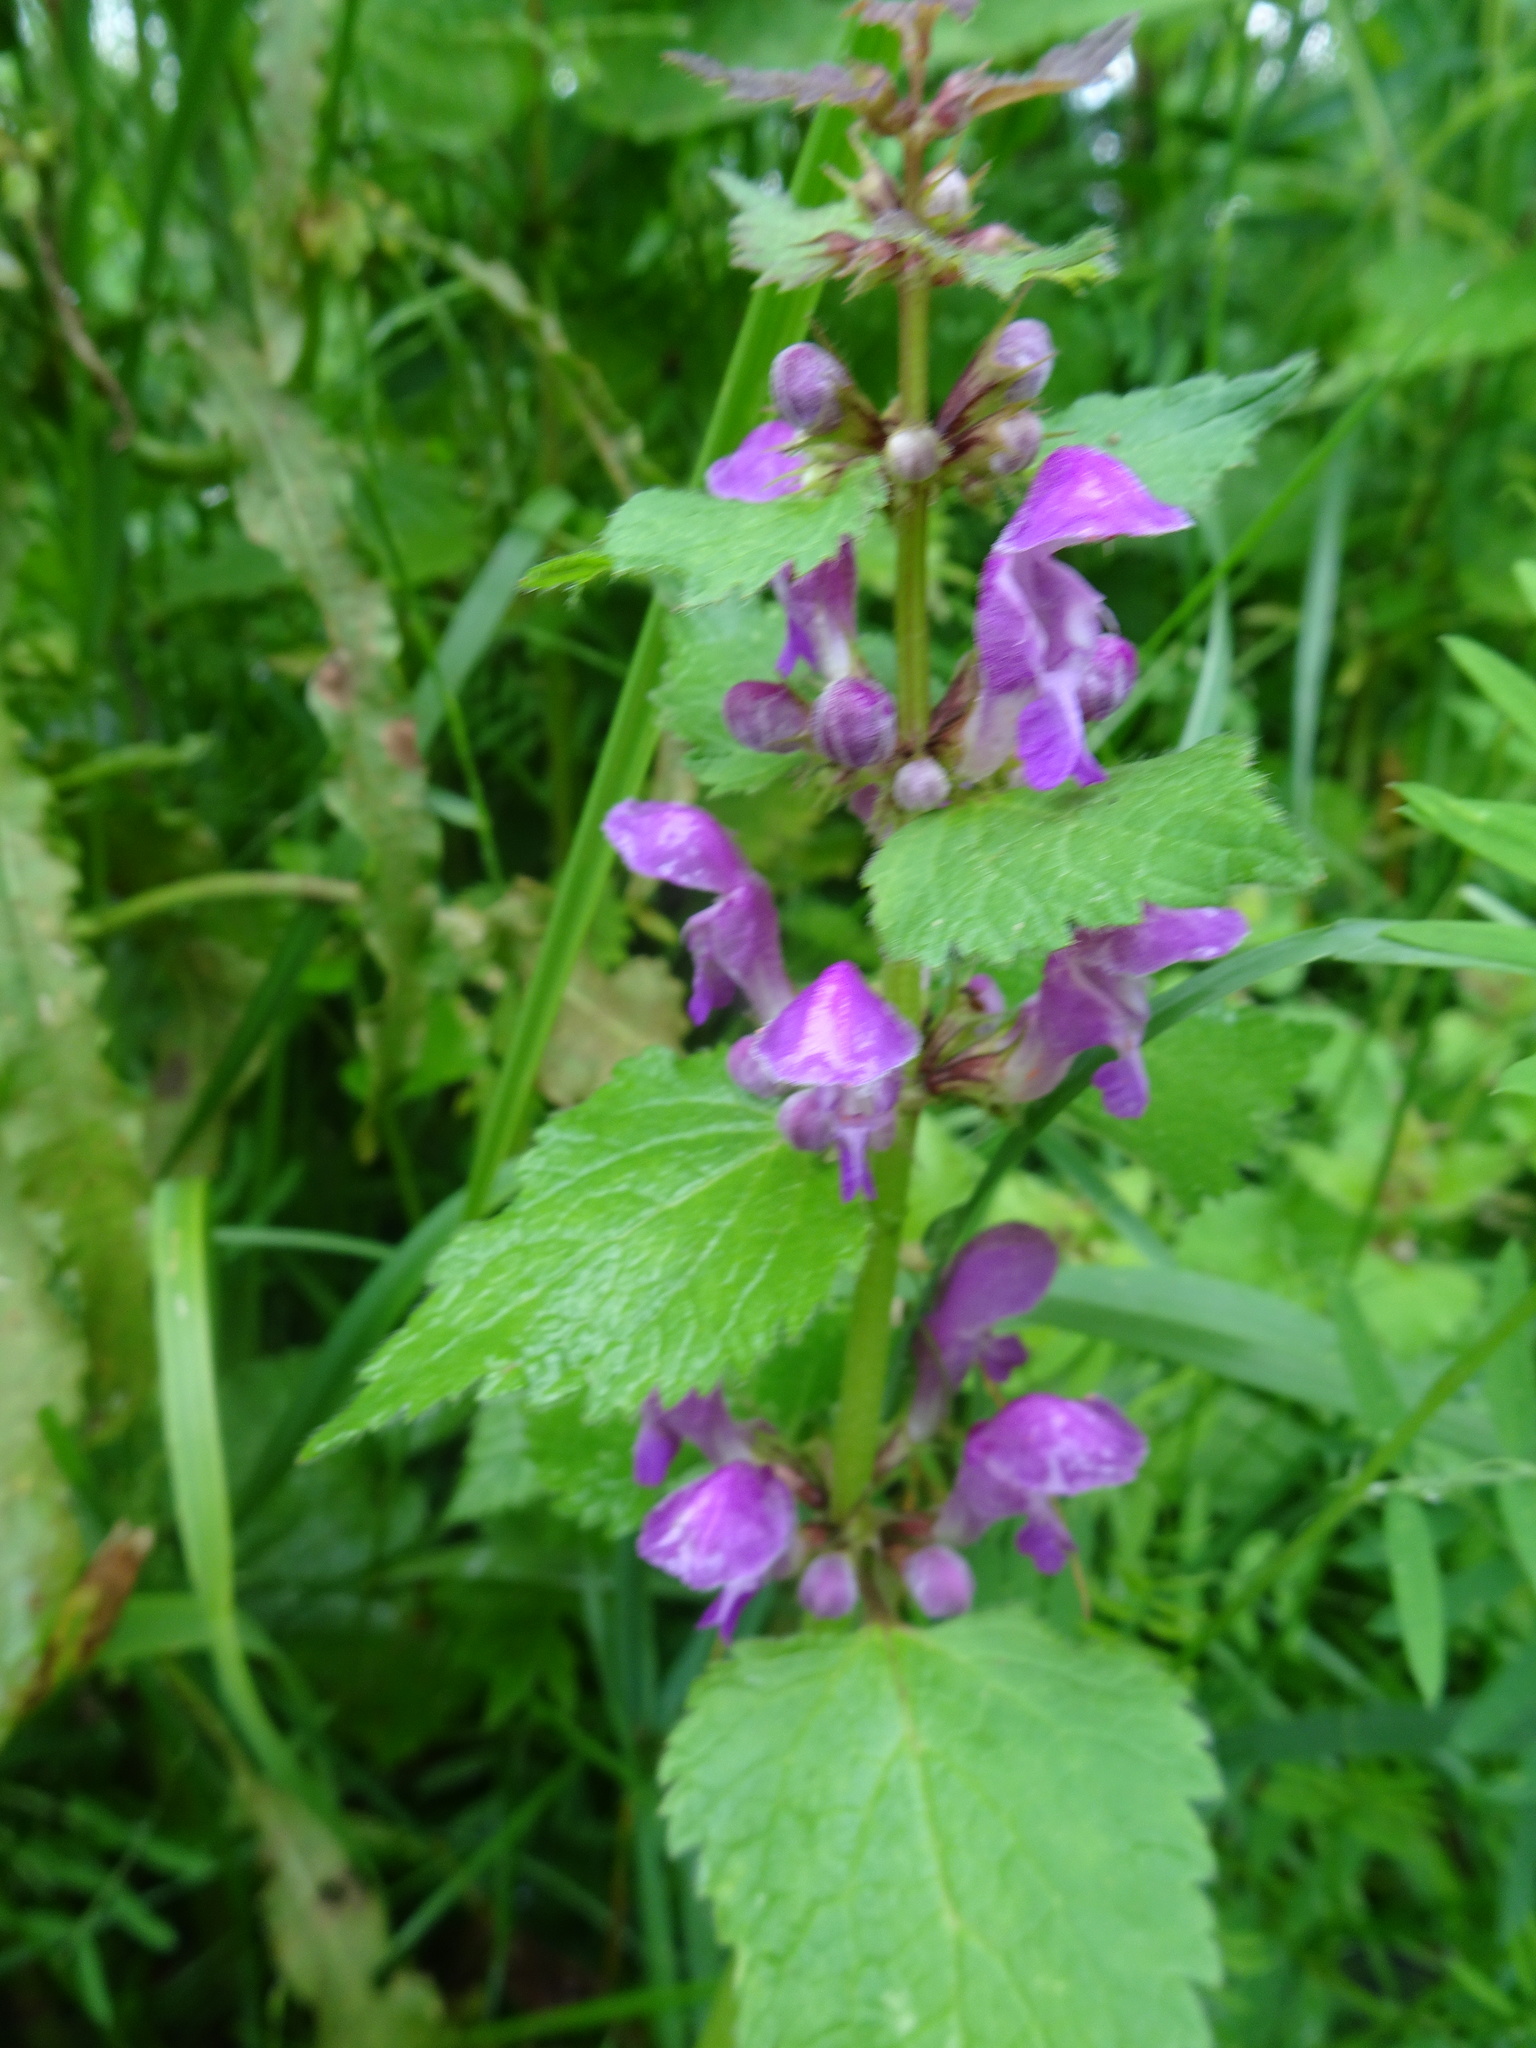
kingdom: Plantae
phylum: Tracheophyta
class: Magnoliopsida
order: Lamiales
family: Lamiaceae
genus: Lamium
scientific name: Lamium maculatum
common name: Spotted dead-nettle
